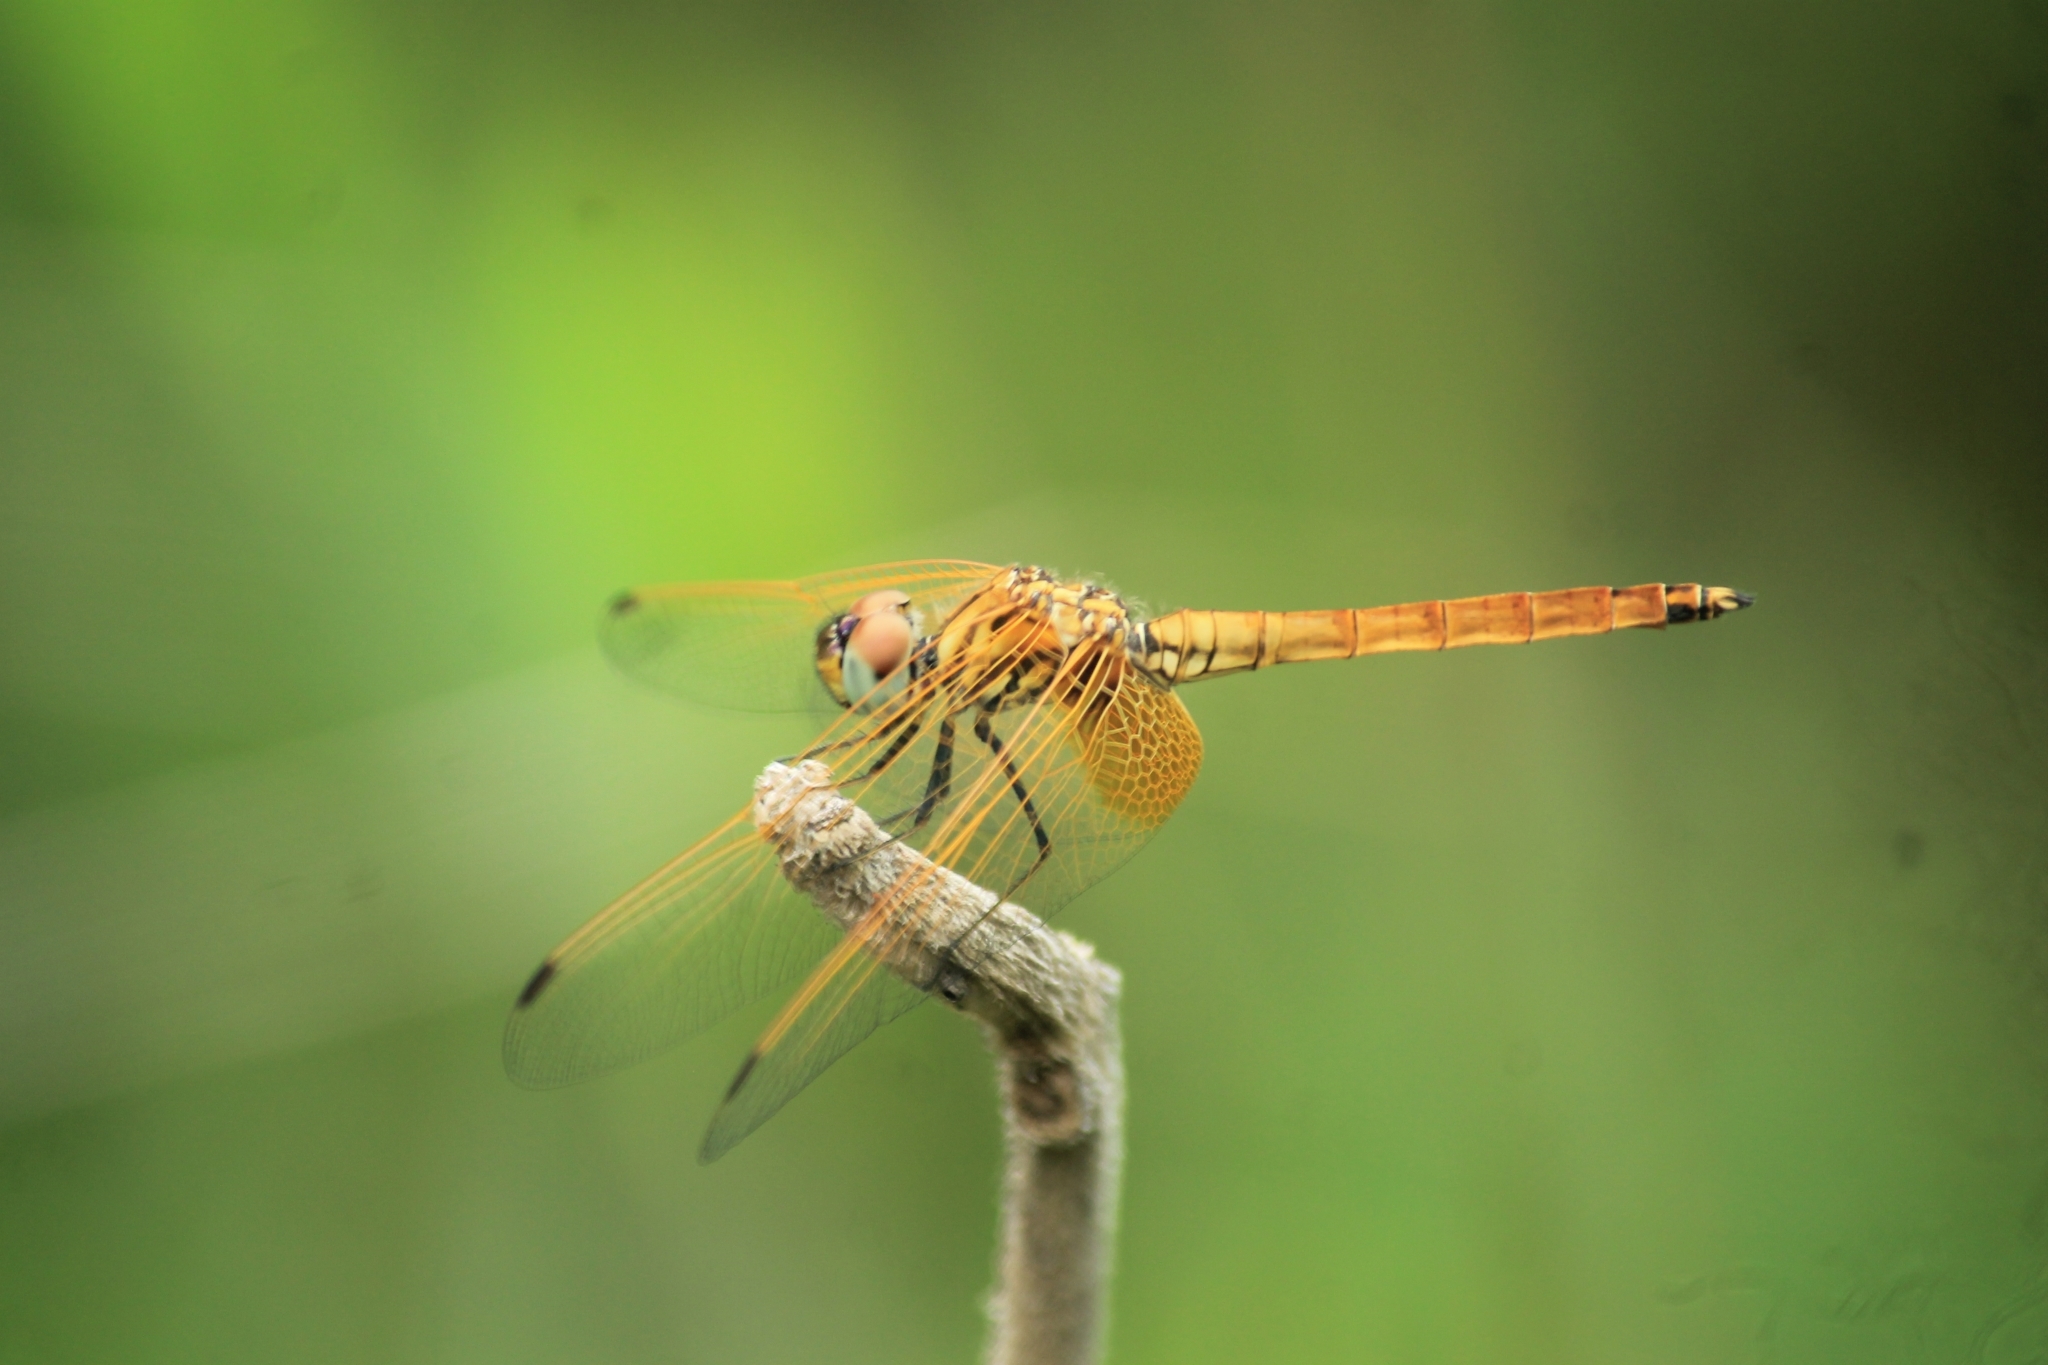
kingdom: Animalia
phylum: Arthropoda
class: Insecta
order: Odonata
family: Libellulidae
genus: Trithemis
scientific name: Trithemis aurora
